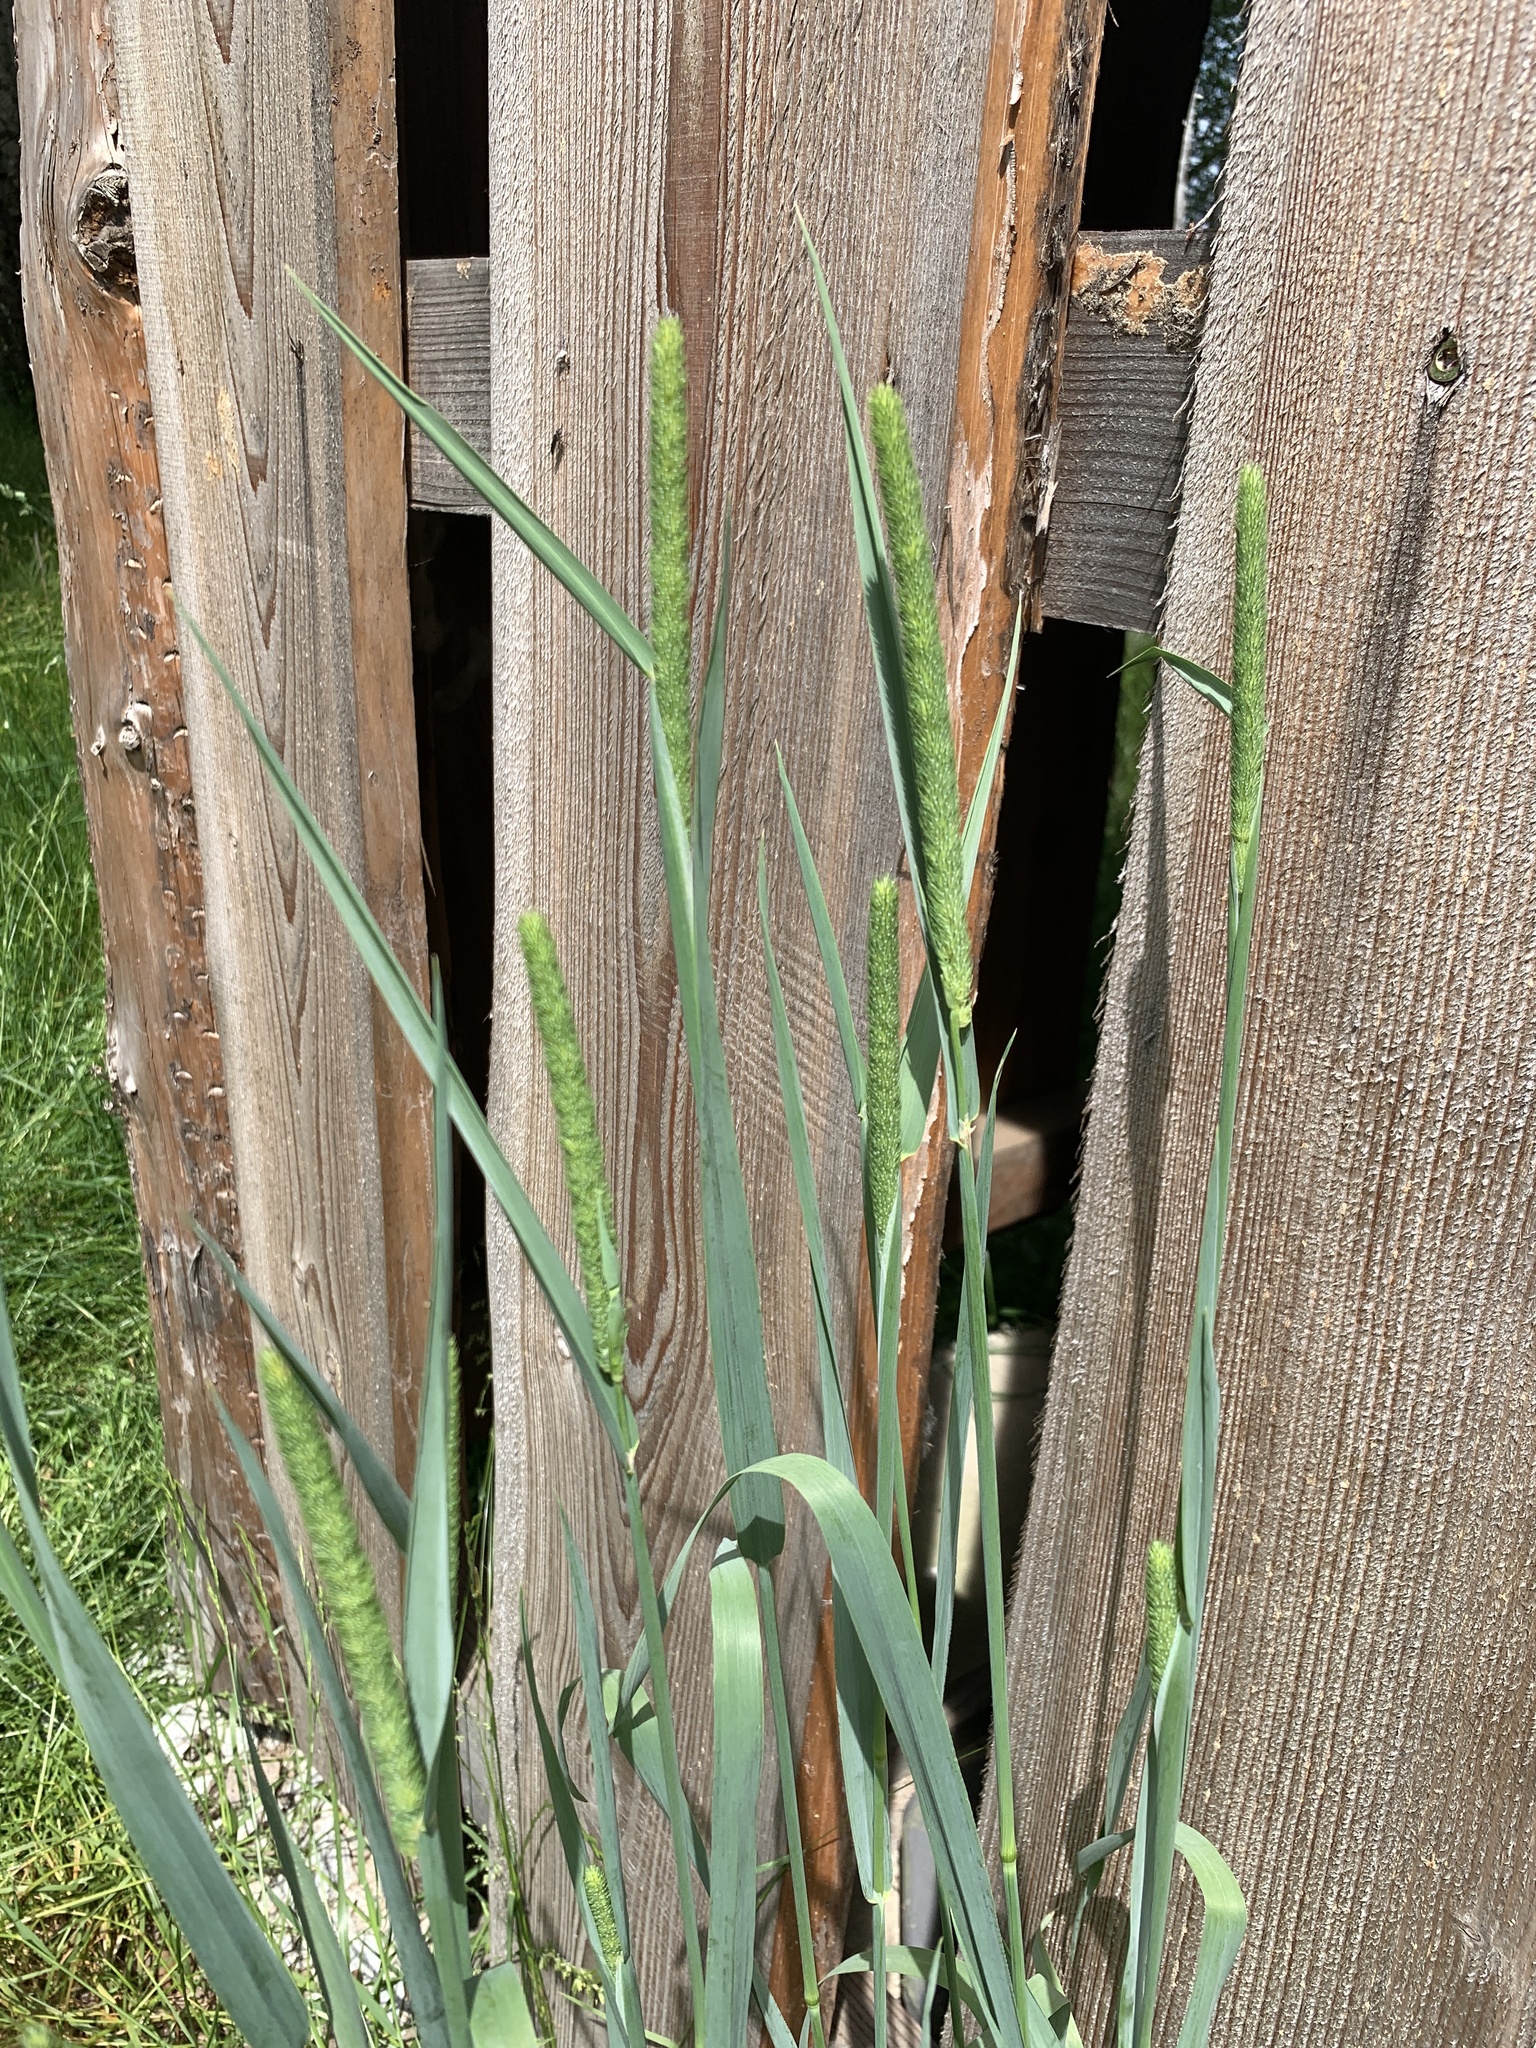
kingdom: Plantae
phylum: Tracheophyta
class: Liliopsida
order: Poales
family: Poaceae
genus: Phleum
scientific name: Phleum pratense
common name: Timothy grass
